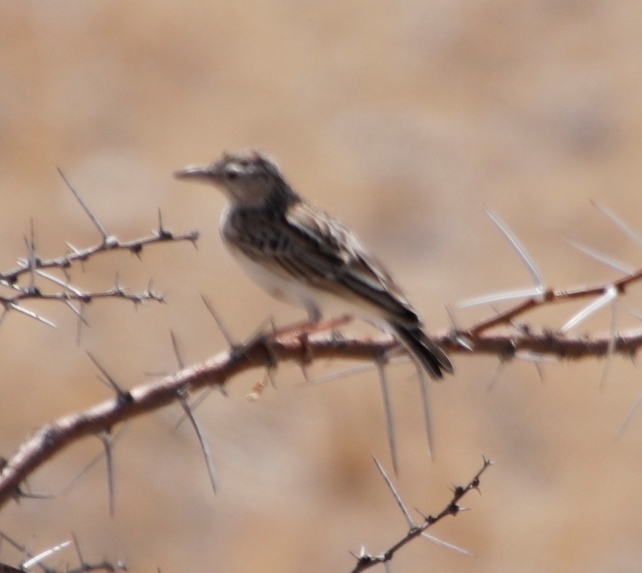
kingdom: Animalia
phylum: Chordata
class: Aves
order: Passeriformes
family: Alaudidae
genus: Calendulauda
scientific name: Calendulauda sabota
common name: Sabota lark
